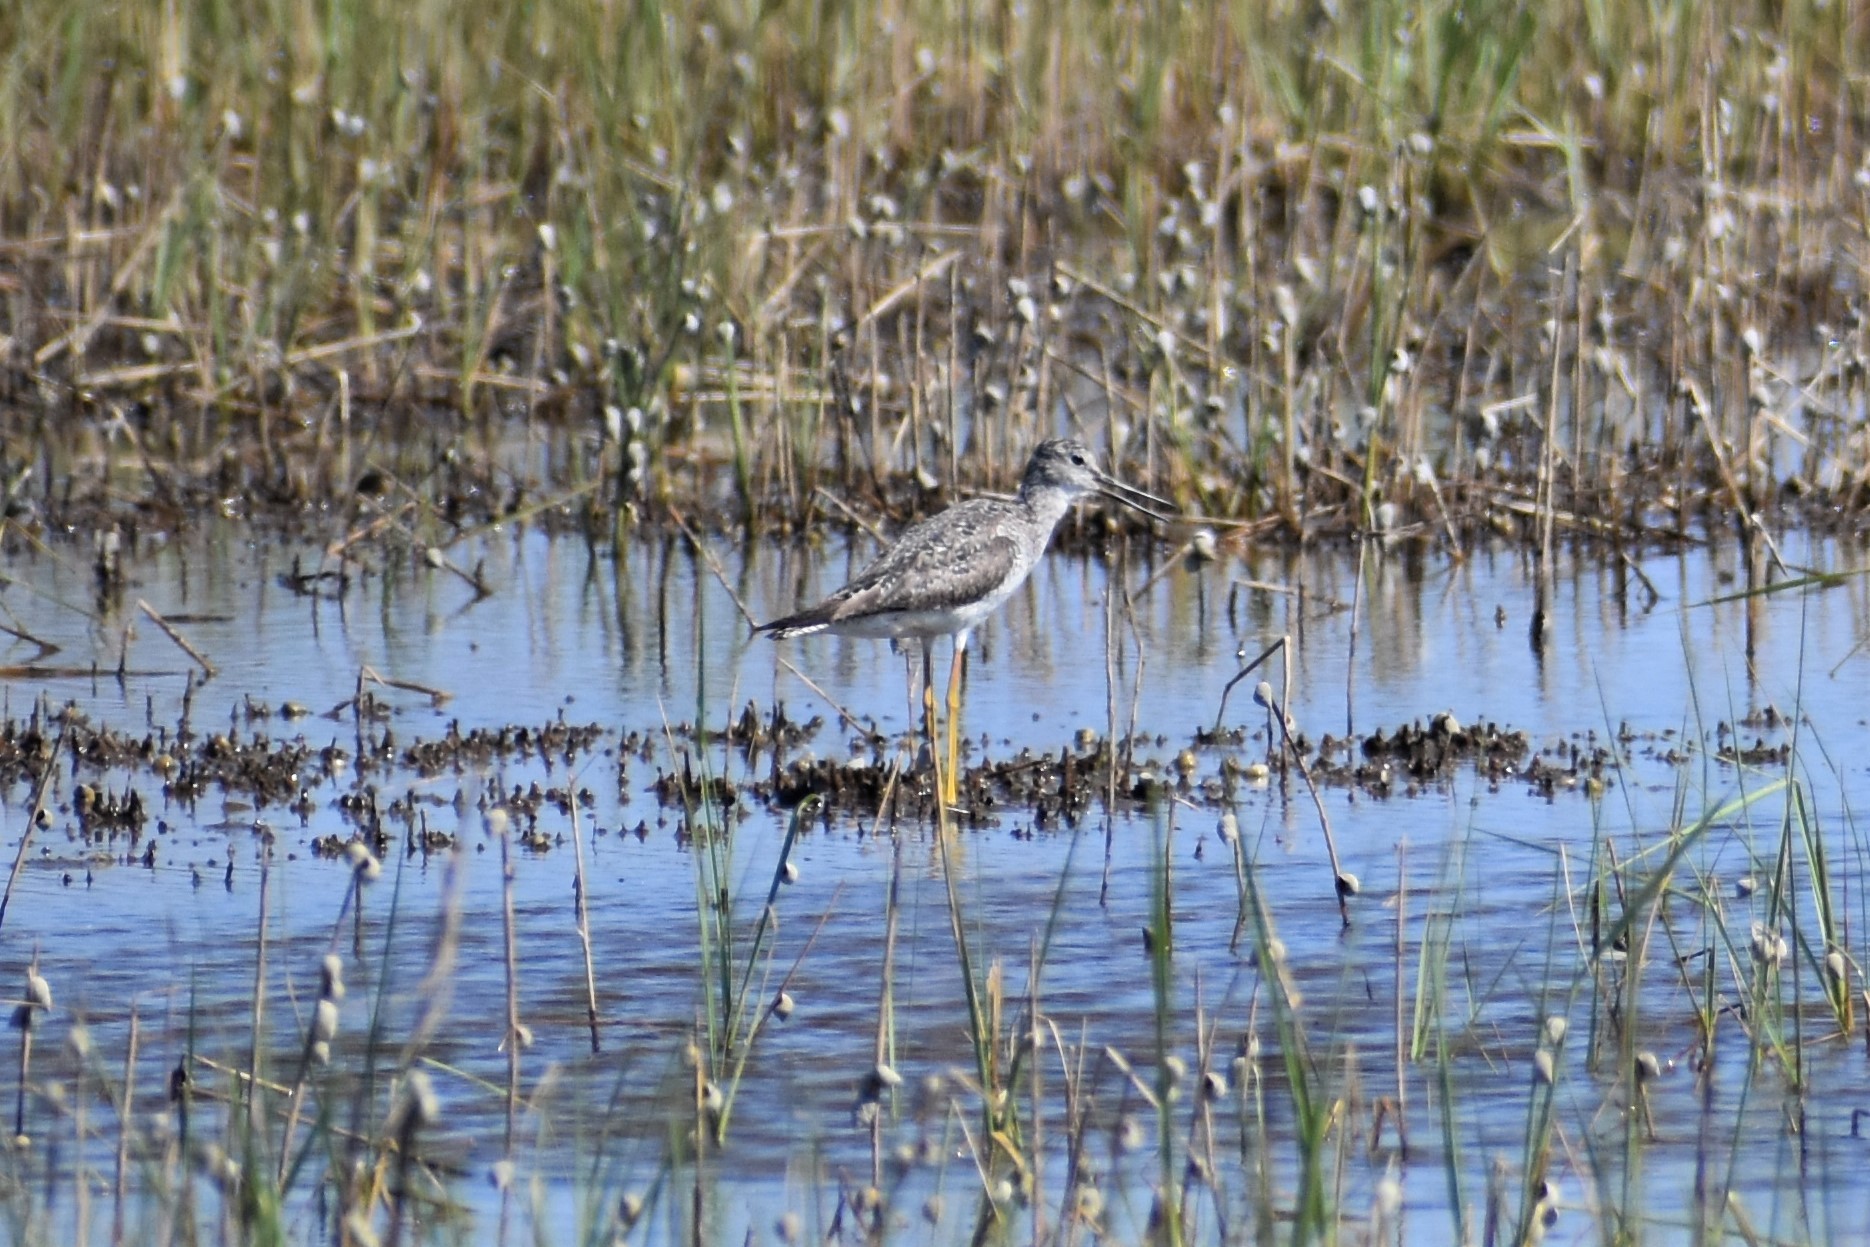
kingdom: Animalia
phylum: Chordata
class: Aves
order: Charadriiformes
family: Scolopacidae
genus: Tringa
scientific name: Tringa melanoleuca
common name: Greater yellowlegs
